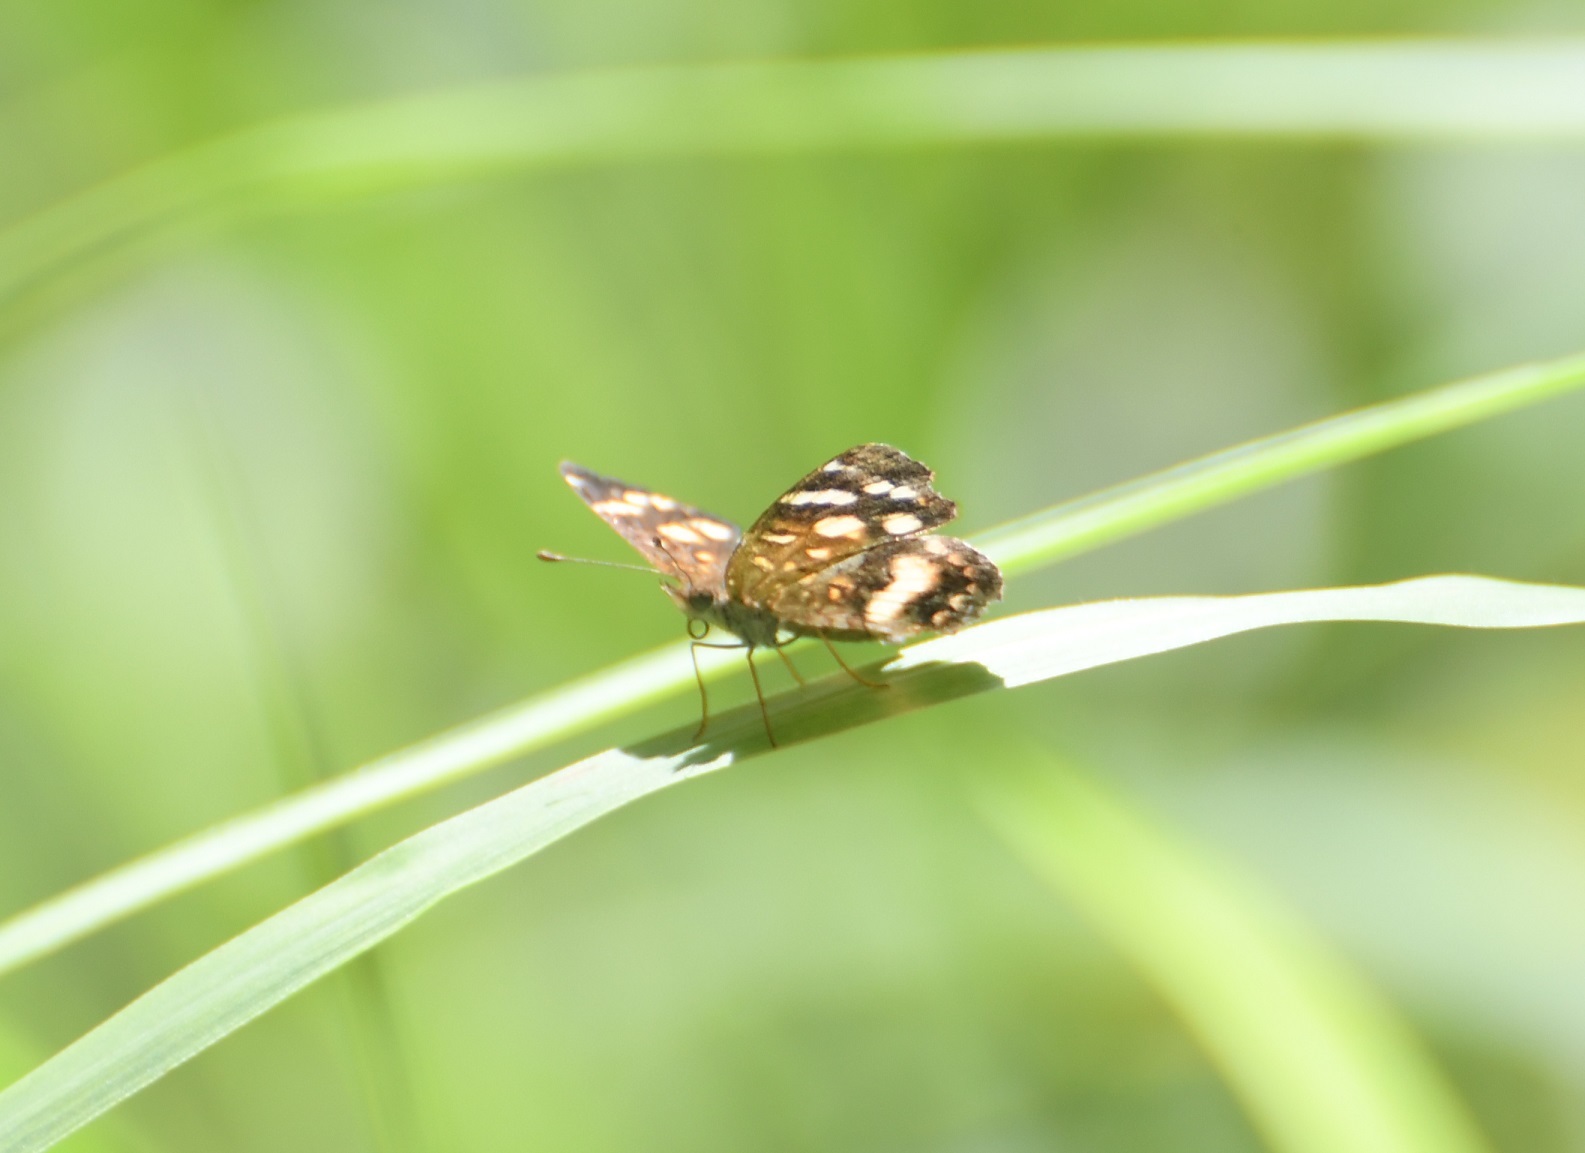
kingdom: Animalia
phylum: Arthropoda
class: Insecta
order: Lepidoptera
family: Nymphalidae
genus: Anthanassa
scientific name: Anthanassa tulcis
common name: Pale-banded crescent
